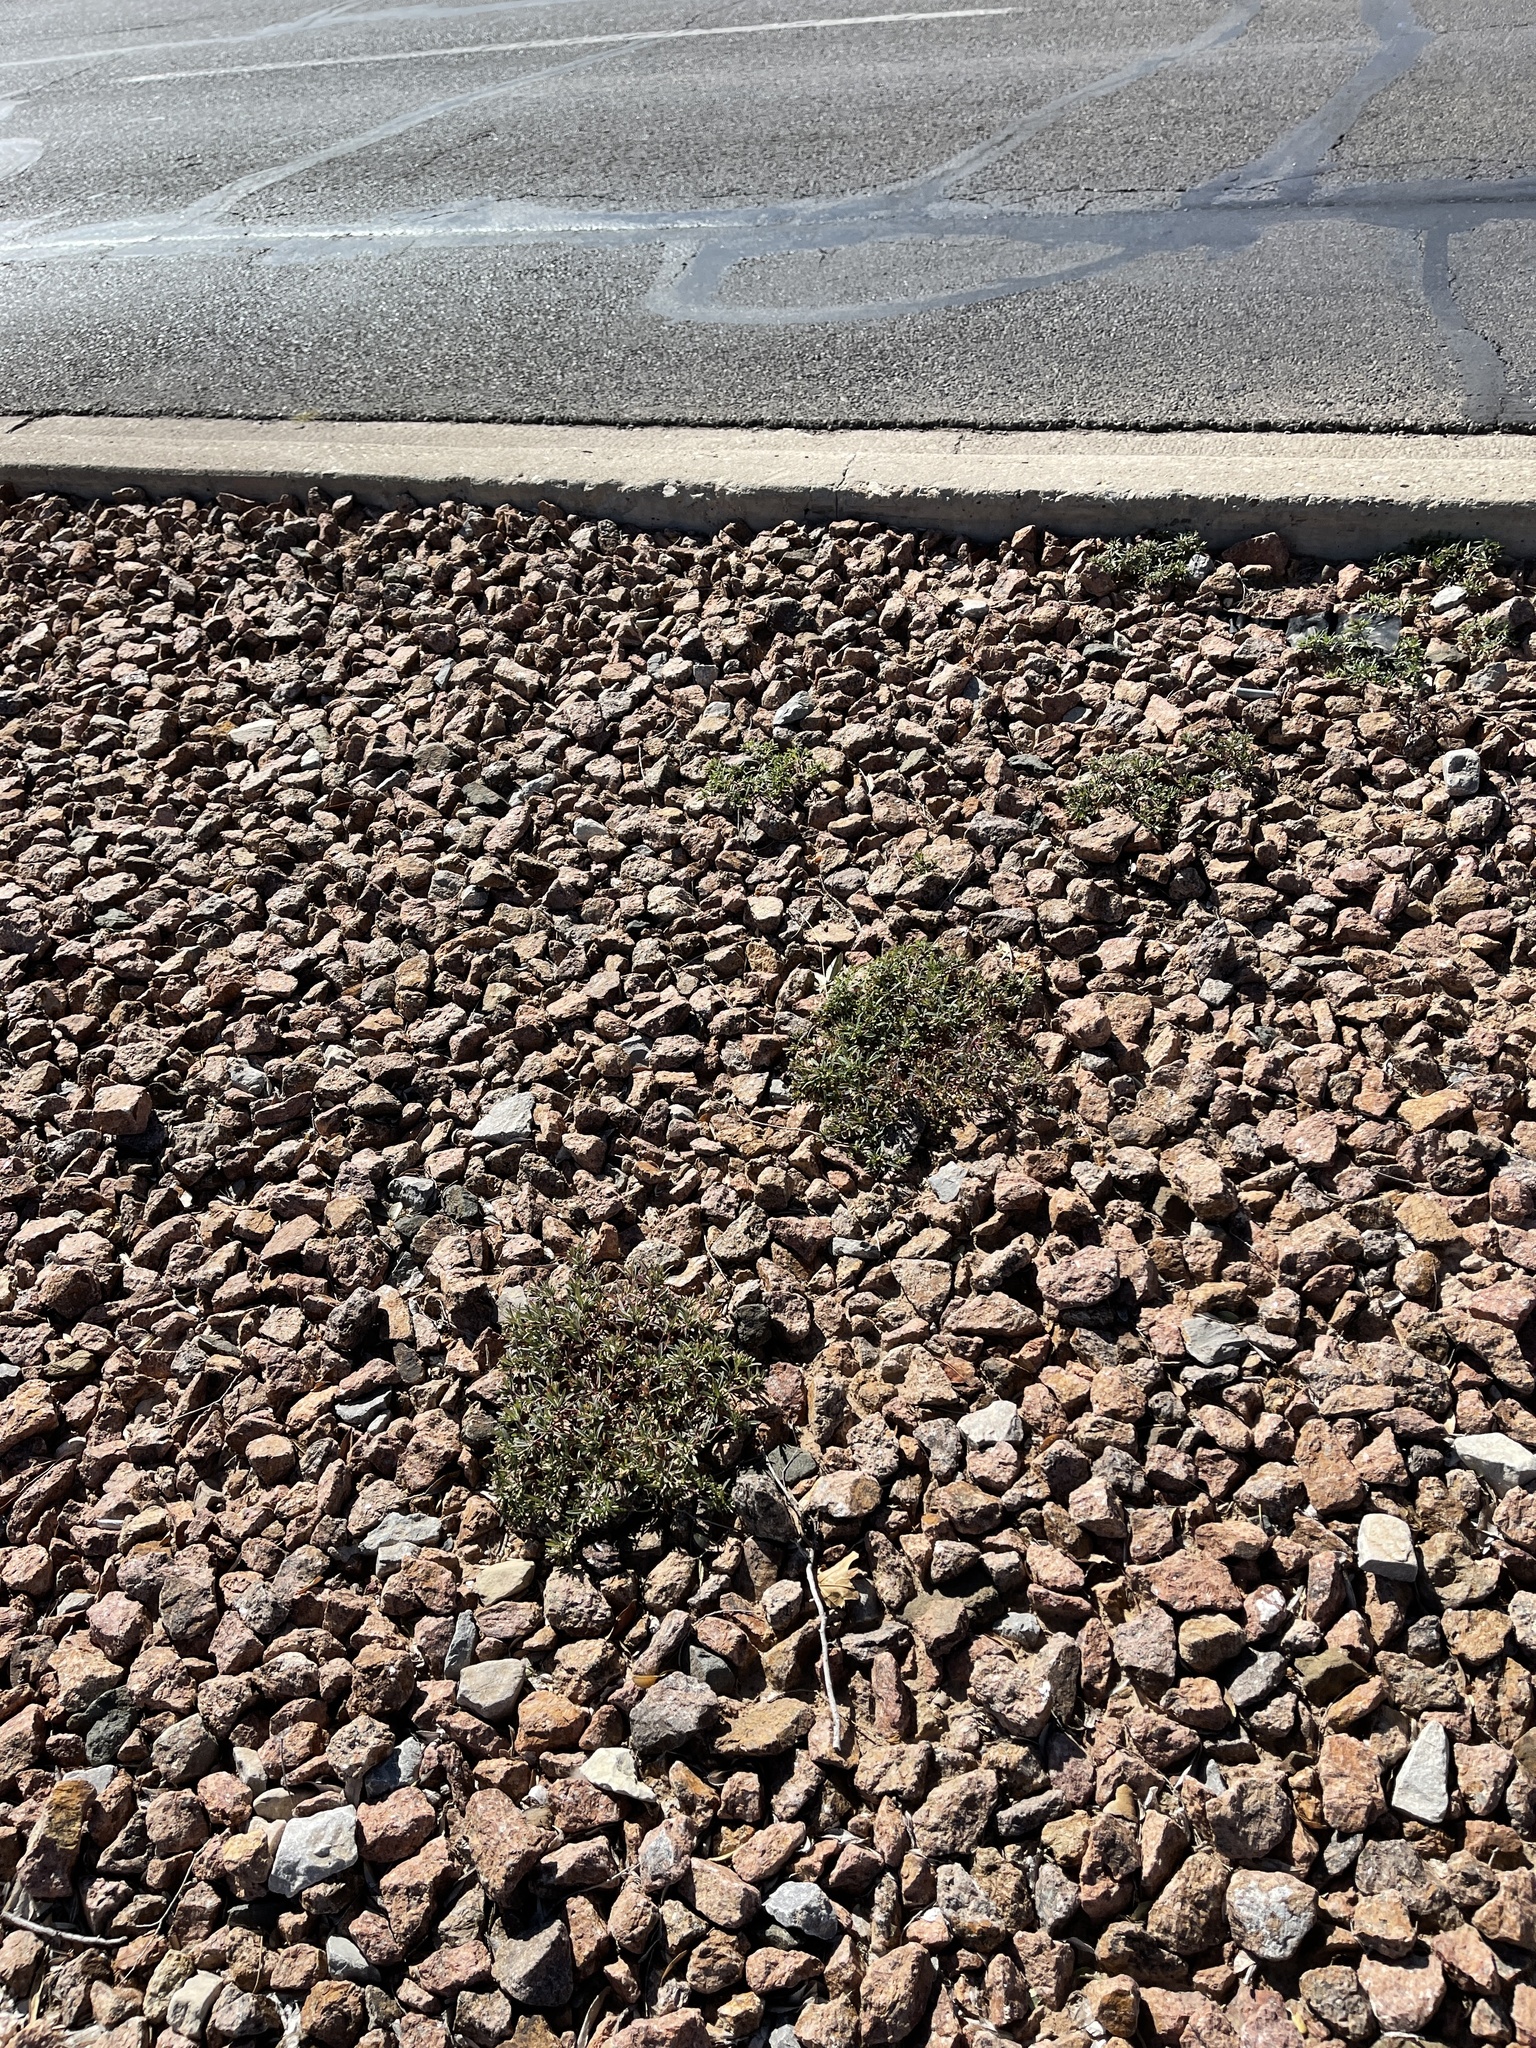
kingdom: Plantae
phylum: Tracheophyta
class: Magnoliopsida
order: Asterales
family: Asteraceae
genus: Pectis
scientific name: Pectis prostrata
